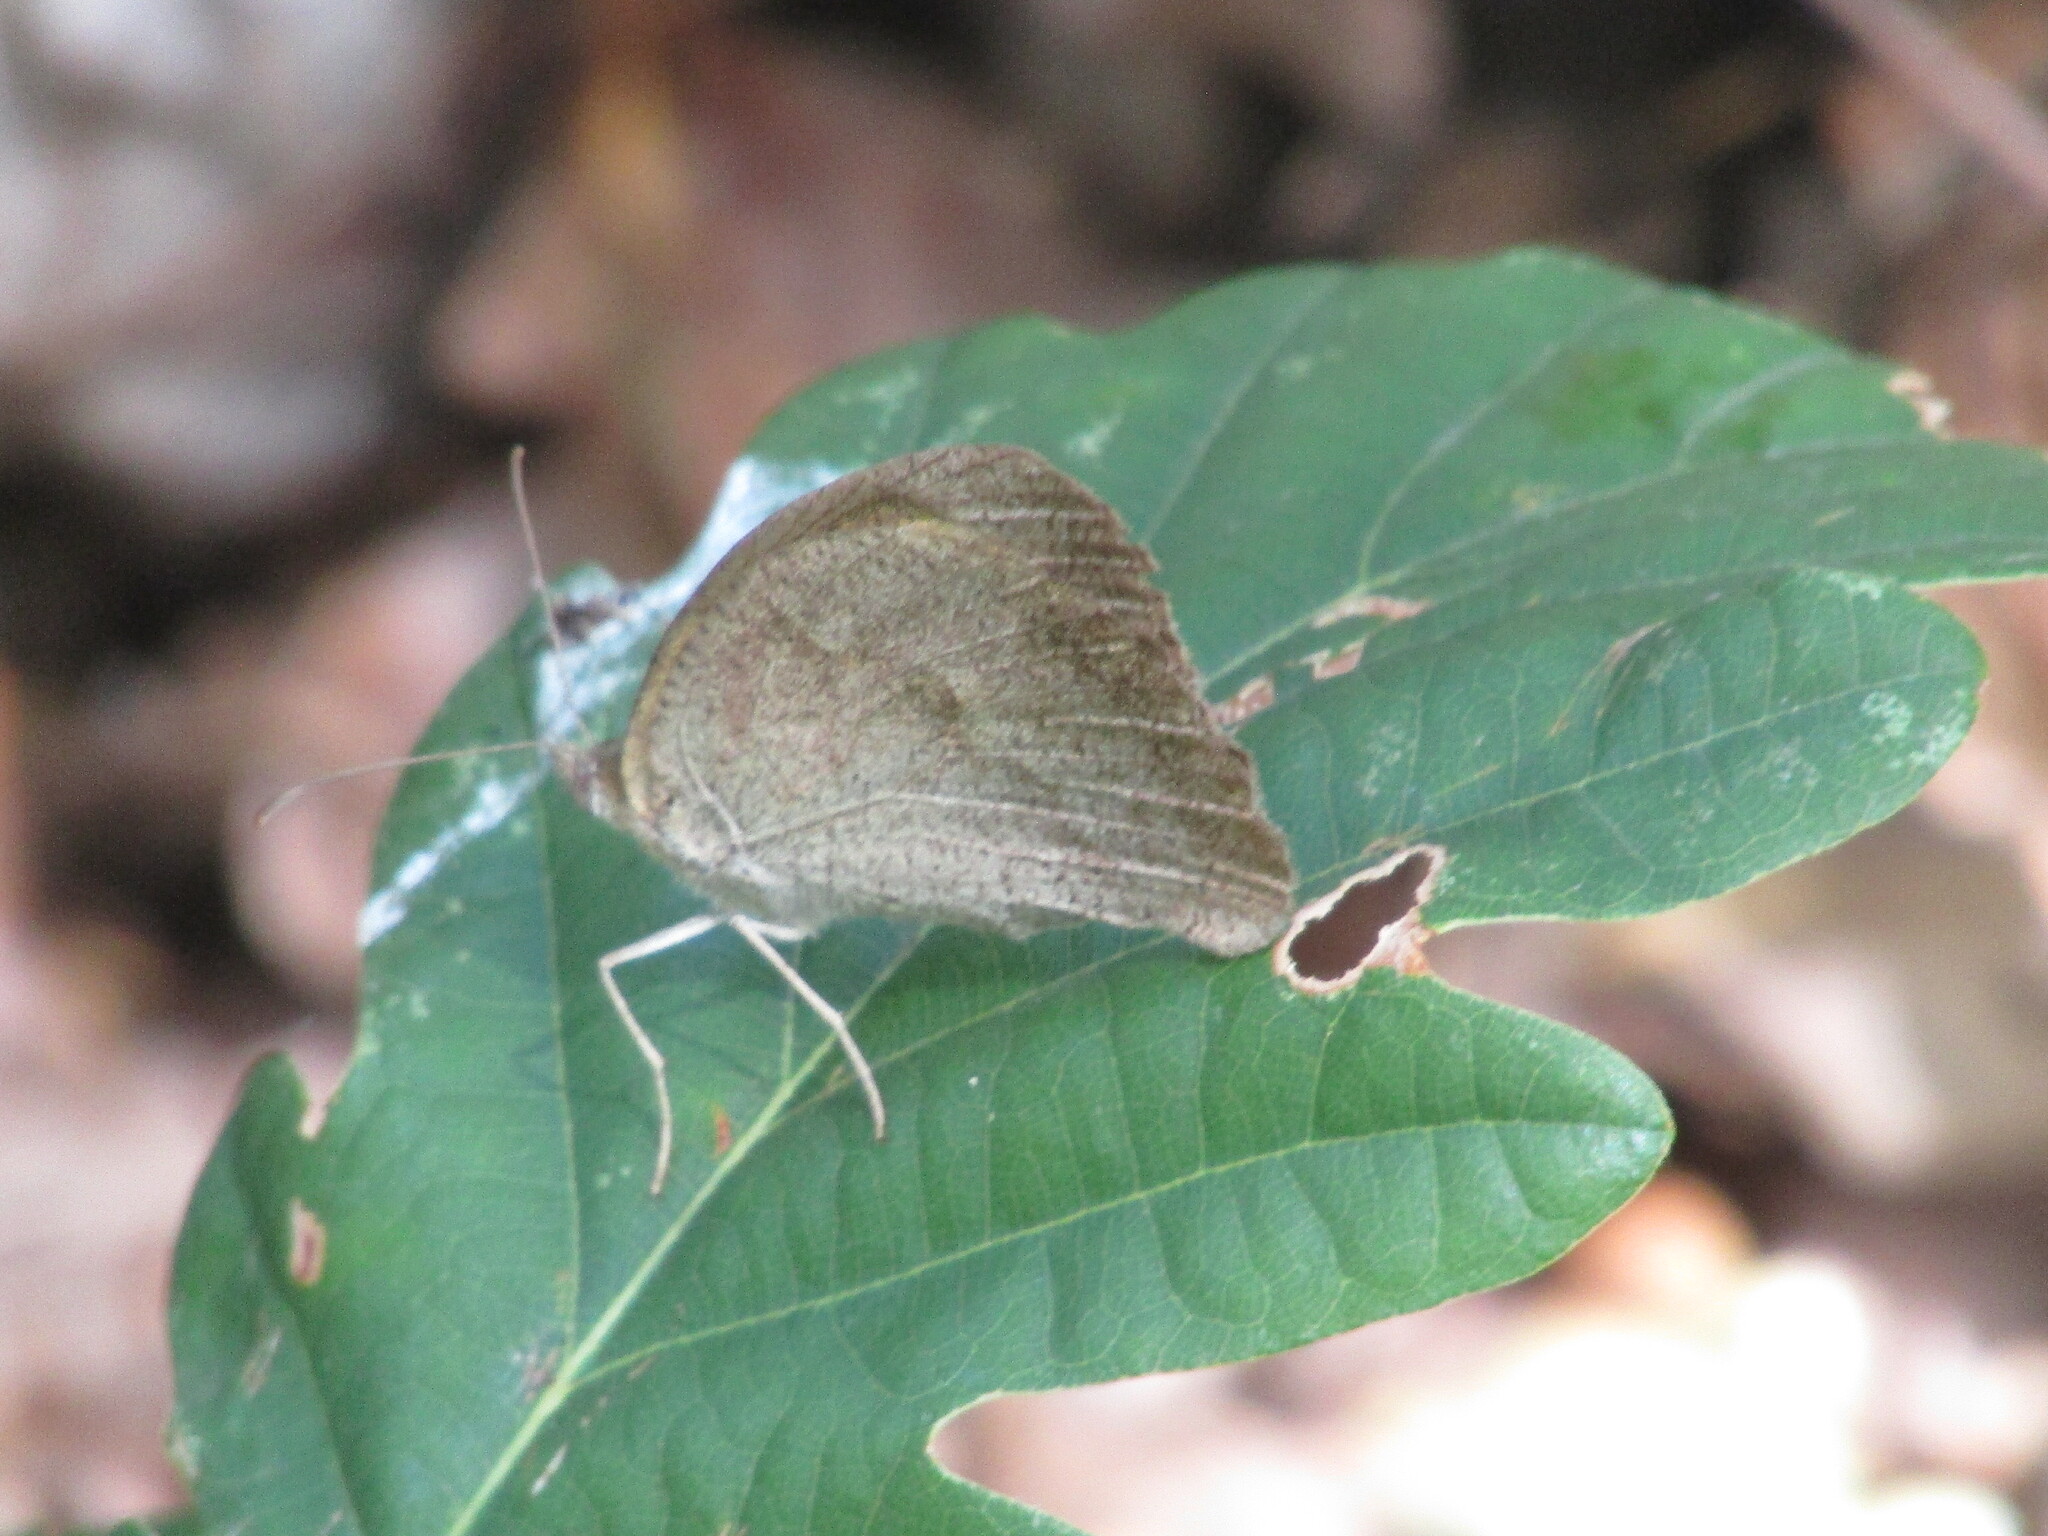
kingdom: Animalia
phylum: Arthropoda
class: Insecta
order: Lepidoptera
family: Nymphalidae
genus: Maniola
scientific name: Maniola jurtina
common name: Meadow brown
